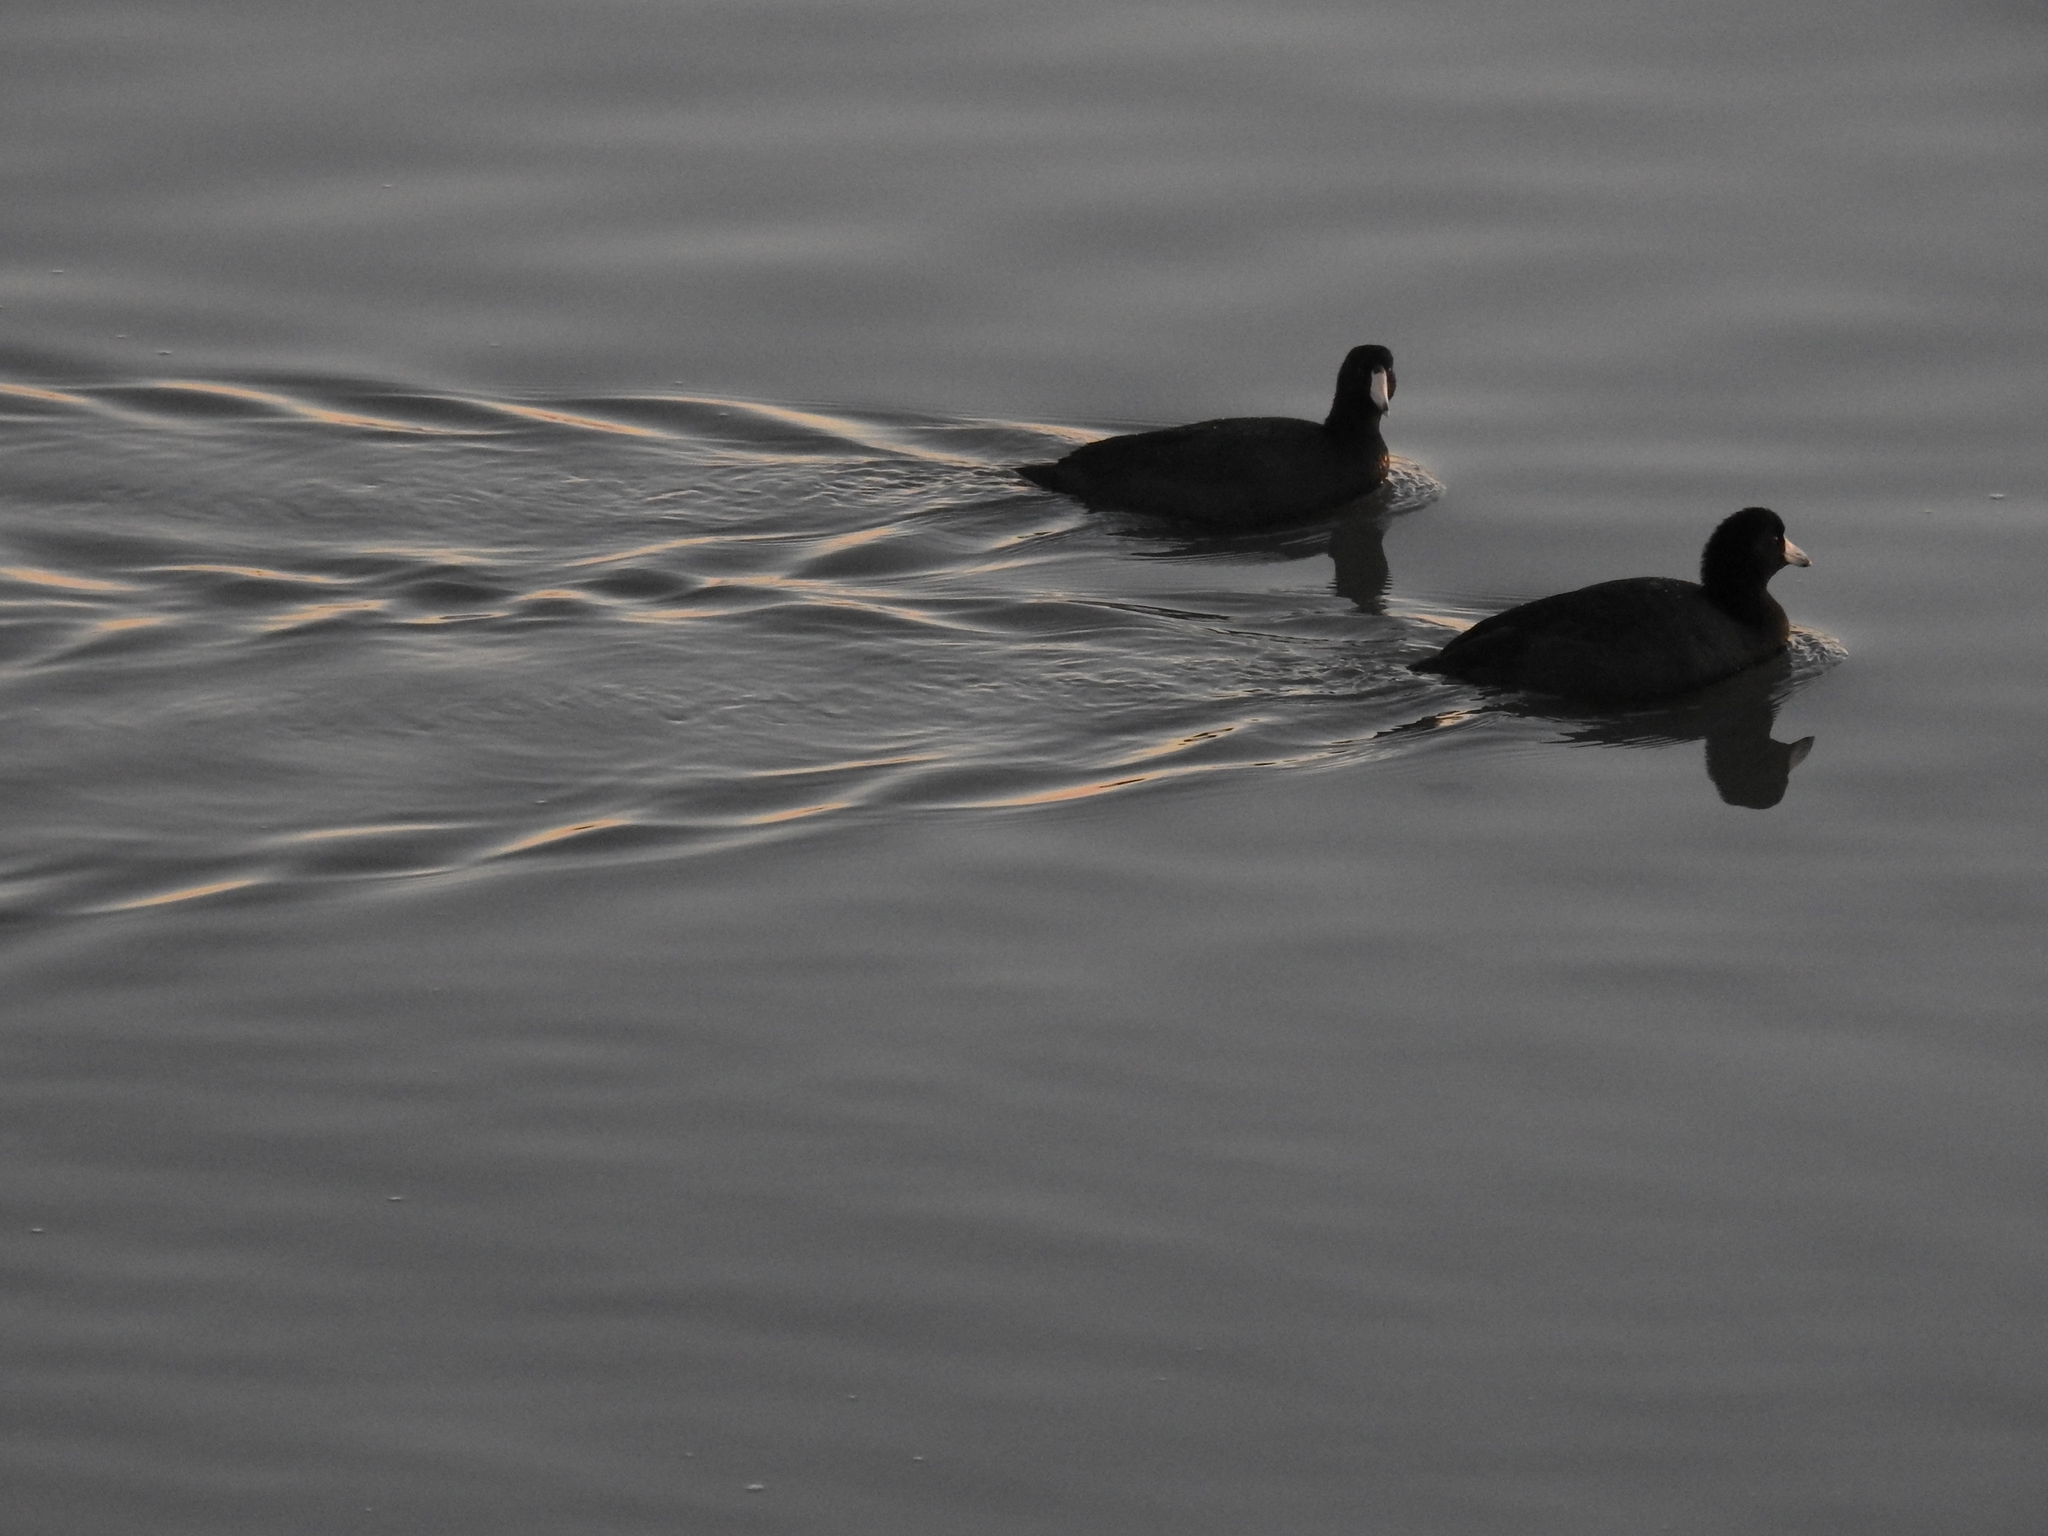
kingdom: Animalia
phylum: Chordata
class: Aves
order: Gruiformes
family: Rallidae
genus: Fulica
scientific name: Fulica americana
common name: American coot
